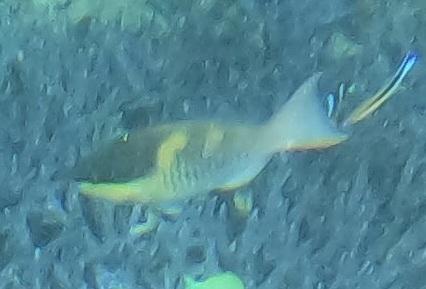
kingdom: Animalia
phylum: Chordata
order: Perciformes
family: Scaridae
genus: Scarus
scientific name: Scarus oviceps
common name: Blue parrotfish
